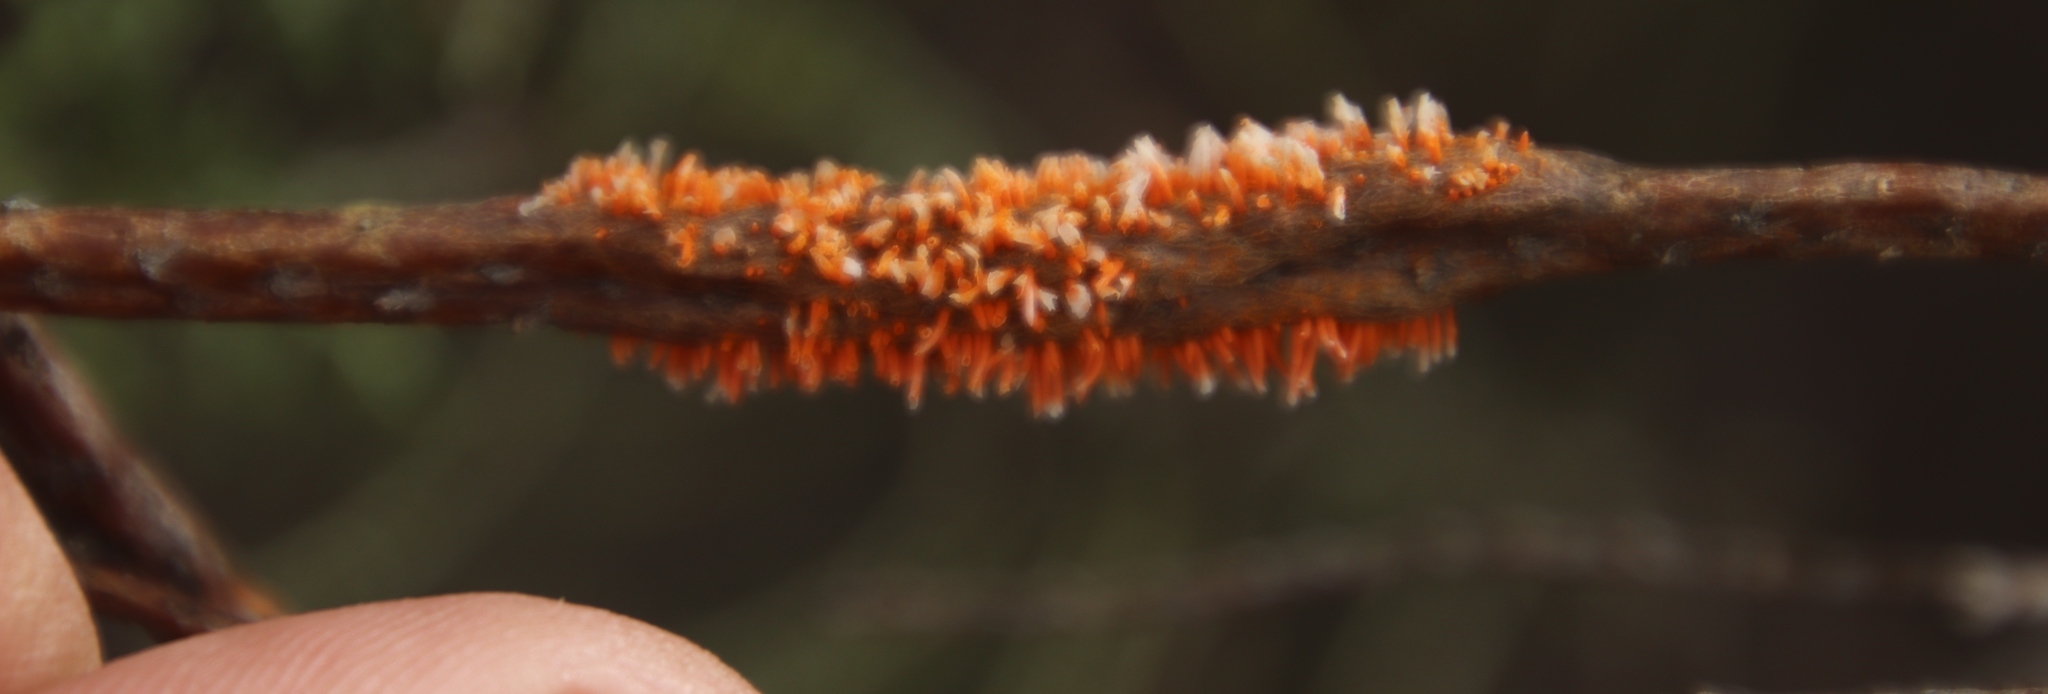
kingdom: Fungi
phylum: Basidiomycota
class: Pucciniomycetes
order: Pucciniales
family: Pucciniaceae
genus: Endophyllum
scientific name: Endophyllum elytropappi
